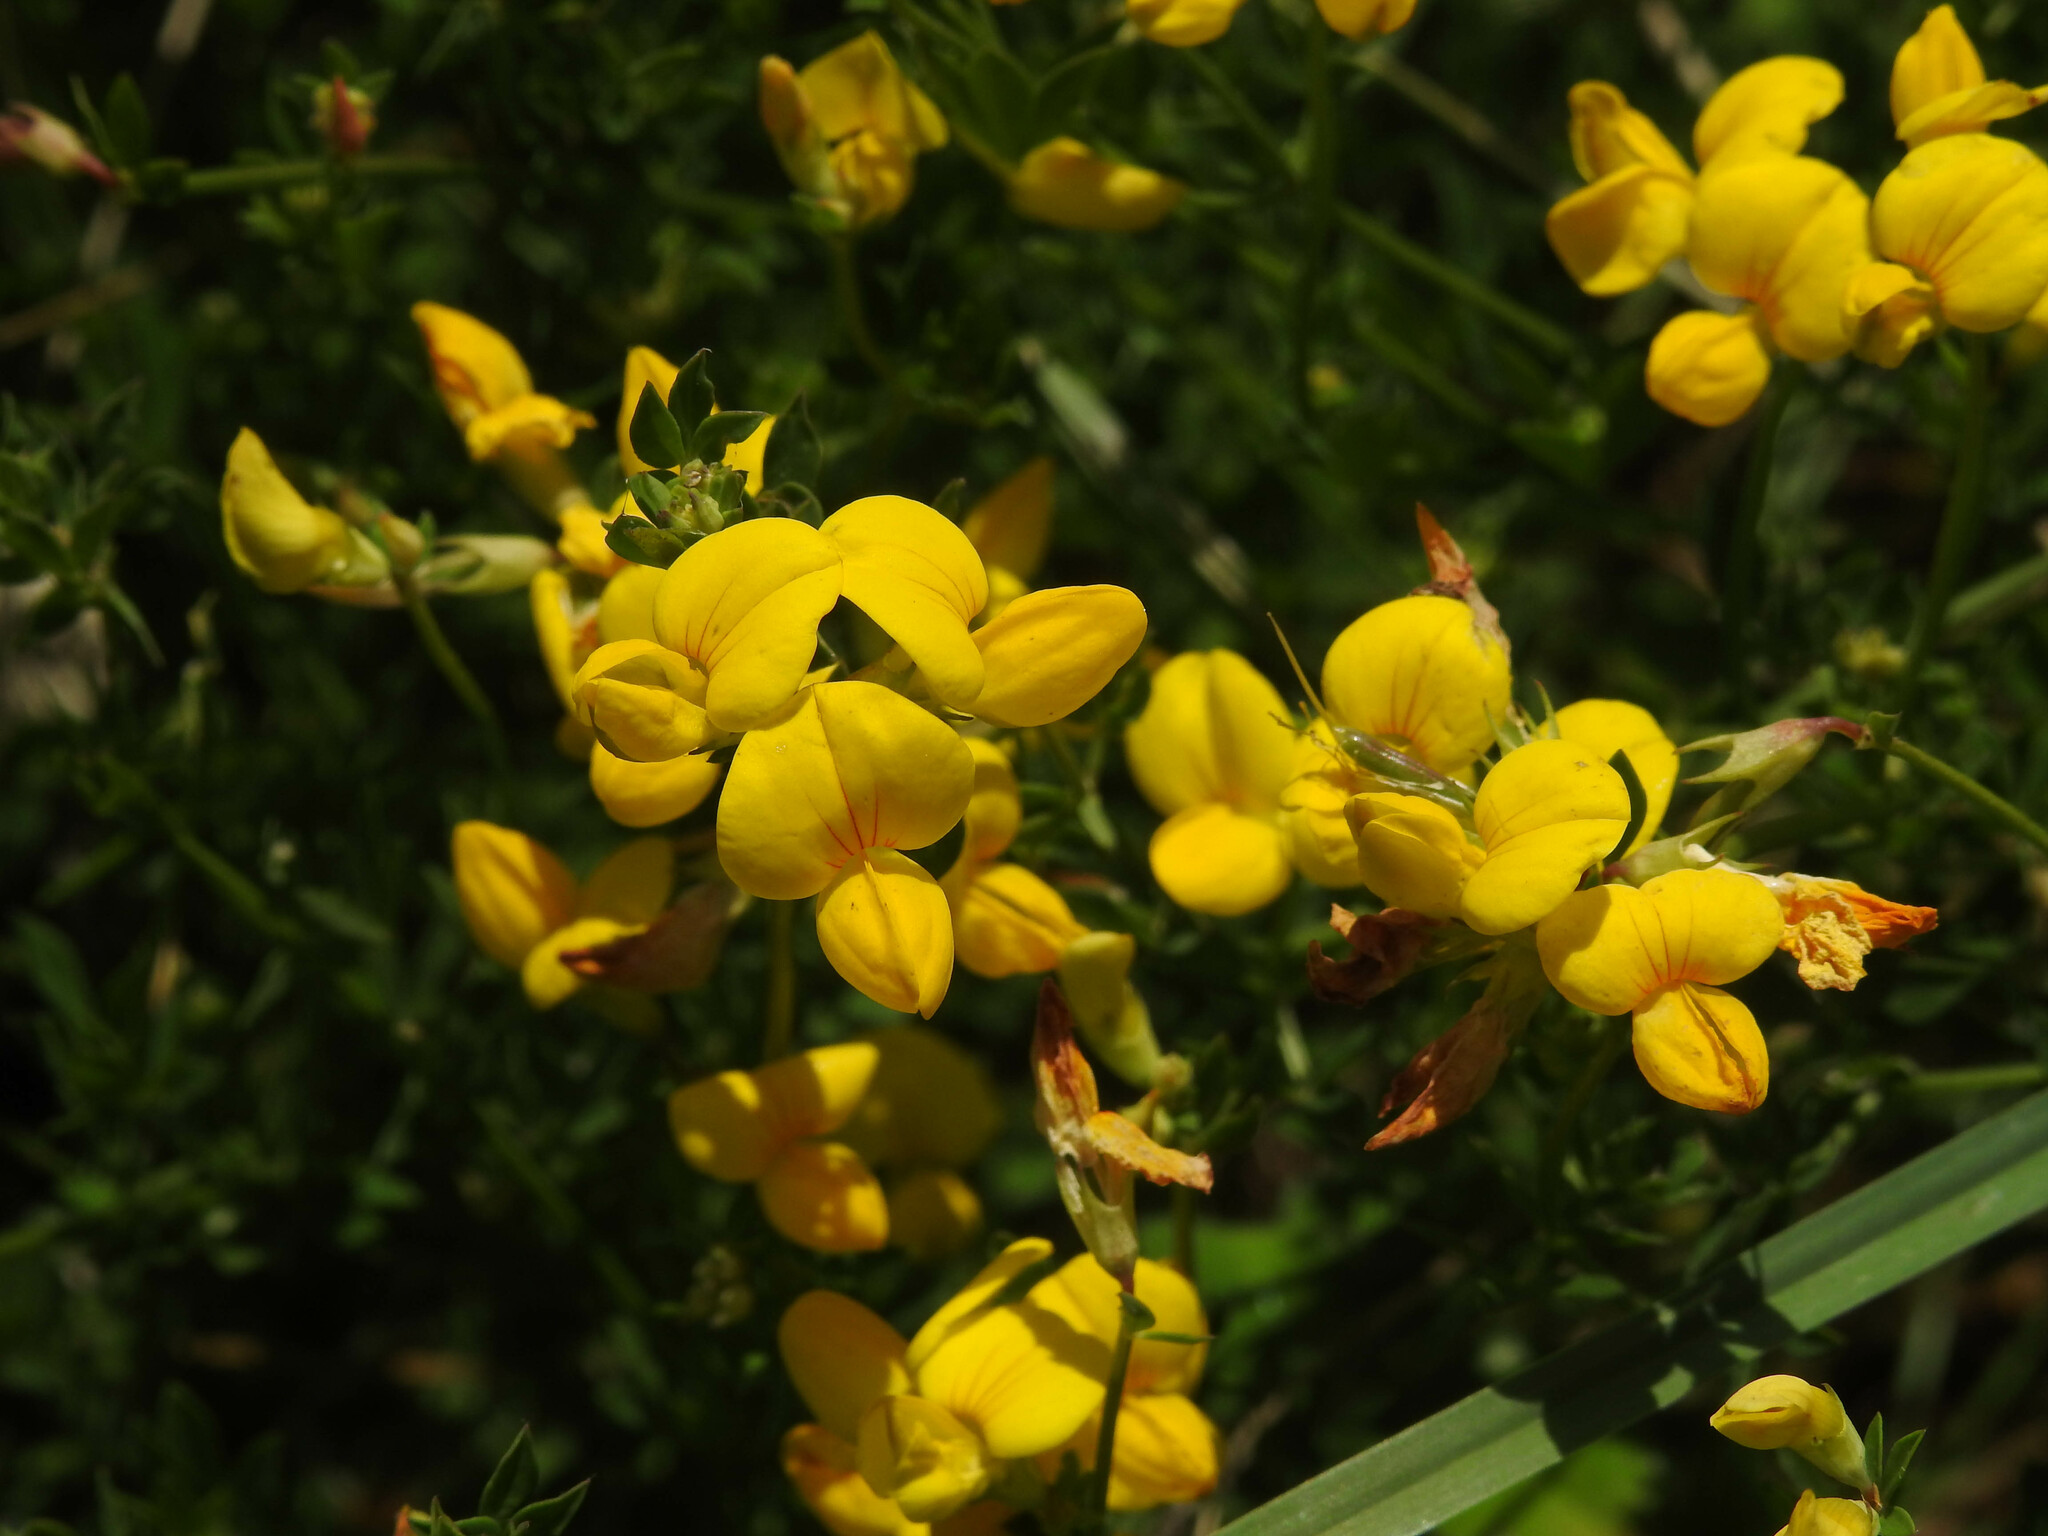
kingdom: Plantae
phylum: Tracheophyta
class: Magnoliopsida
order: Fabales
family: Fabaceae
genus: Lotus
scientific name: Lotus corniculatus
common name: Common bird's-foot-trefoil
